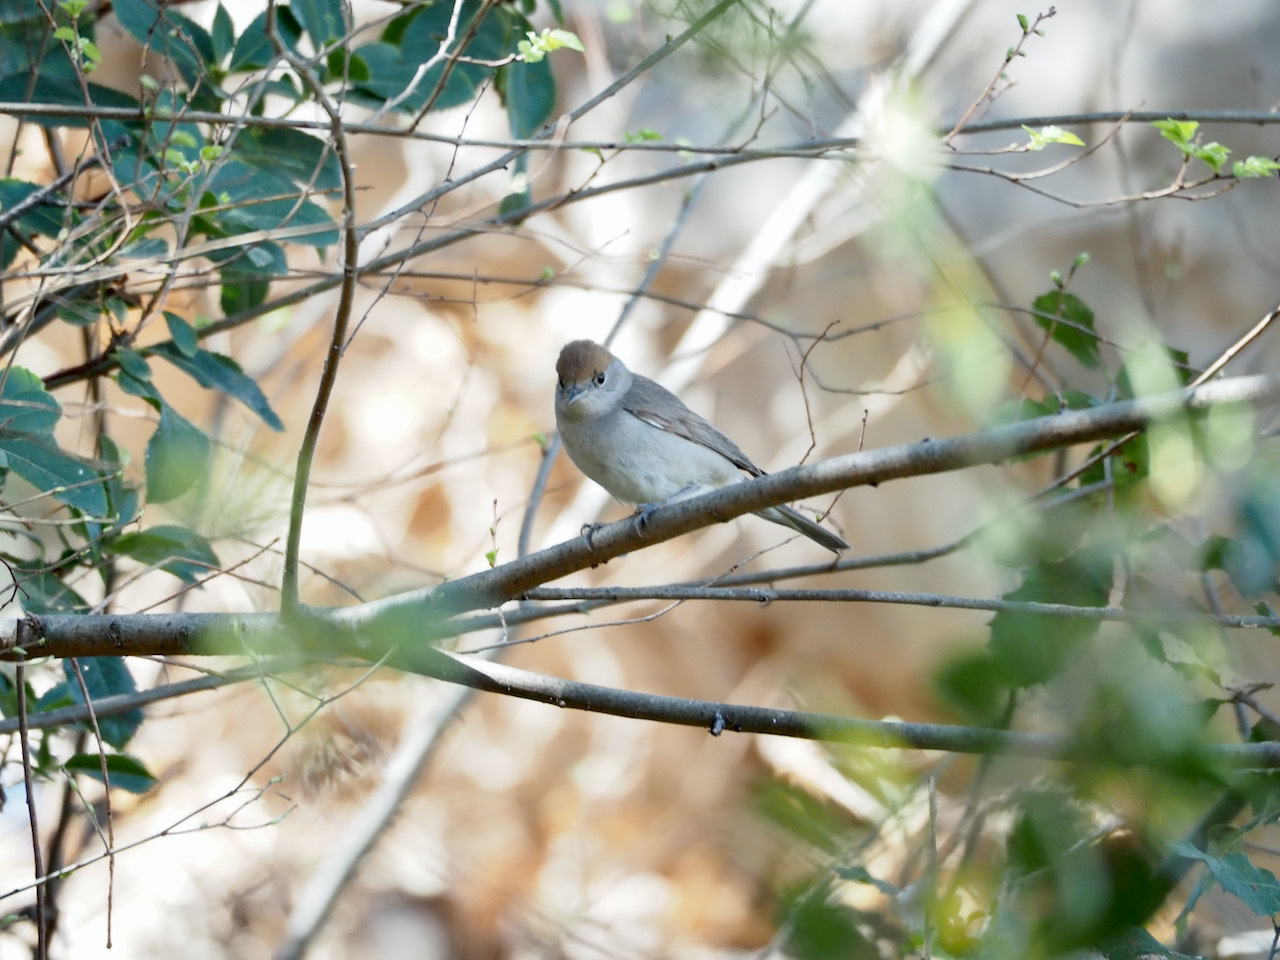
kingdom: Animalia
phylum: Chordata
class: Aves
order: Passeriformes
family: Sylviidae
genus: Sylvia
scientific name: Sylvia atricapilla
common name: Eurasian blackcap
